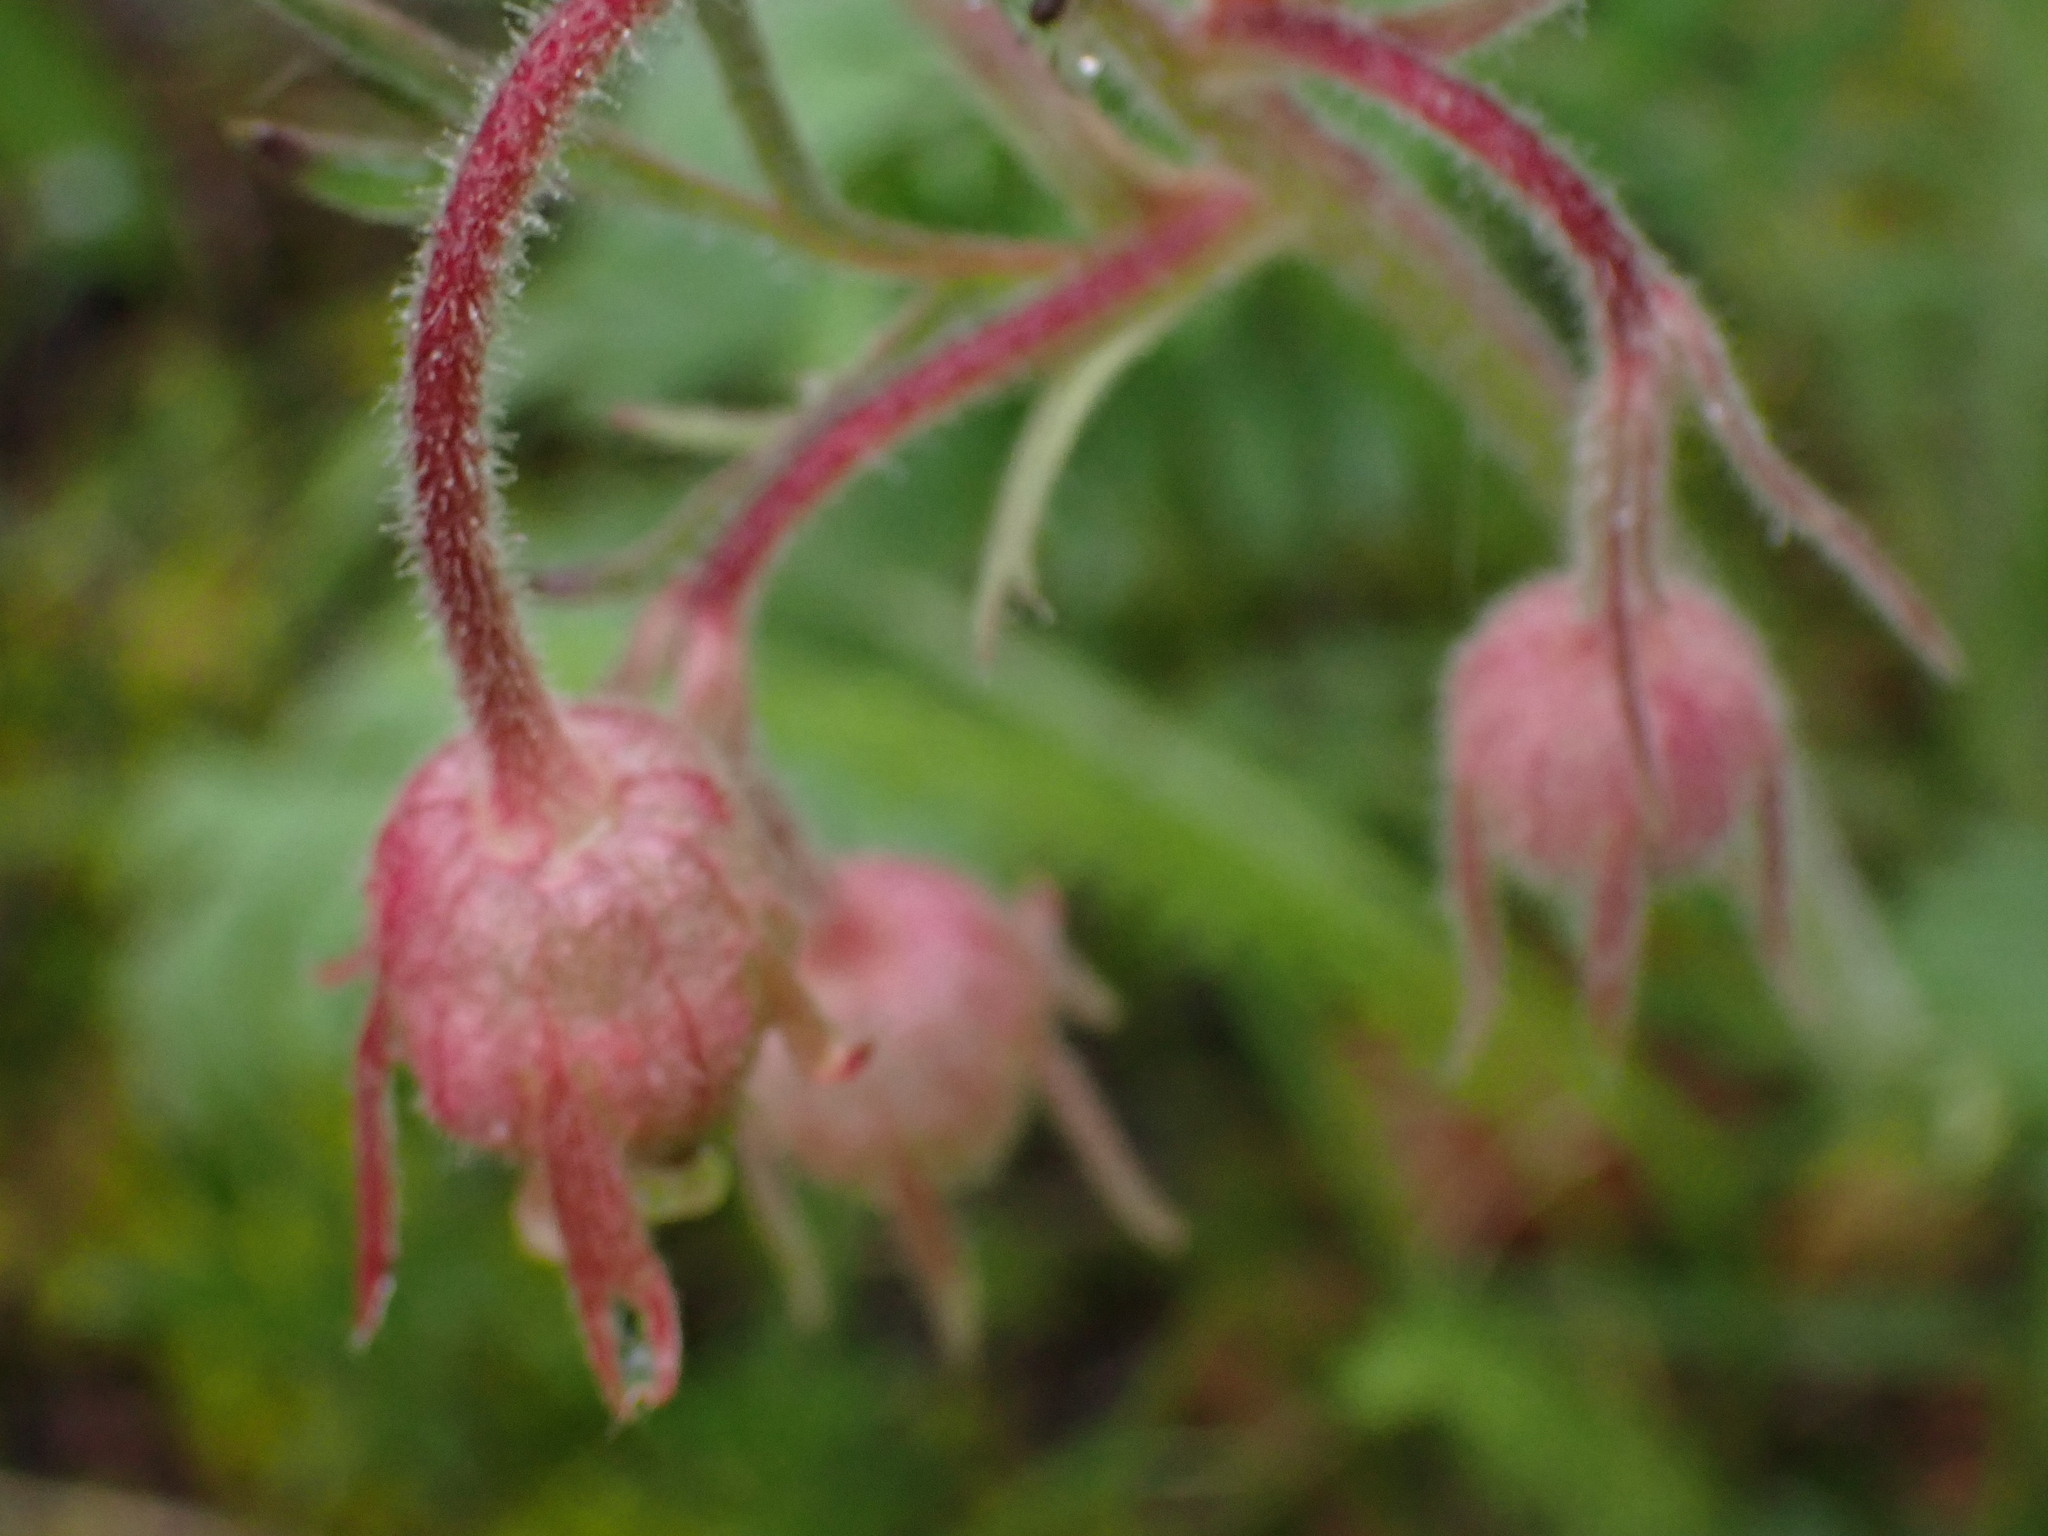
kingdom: Plantae
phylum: Tracheophyta
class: Magnoliopsida
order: Rosales
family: Rosaceae
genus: Geum
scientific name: Geum triflorum
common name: Old man's whiskers
